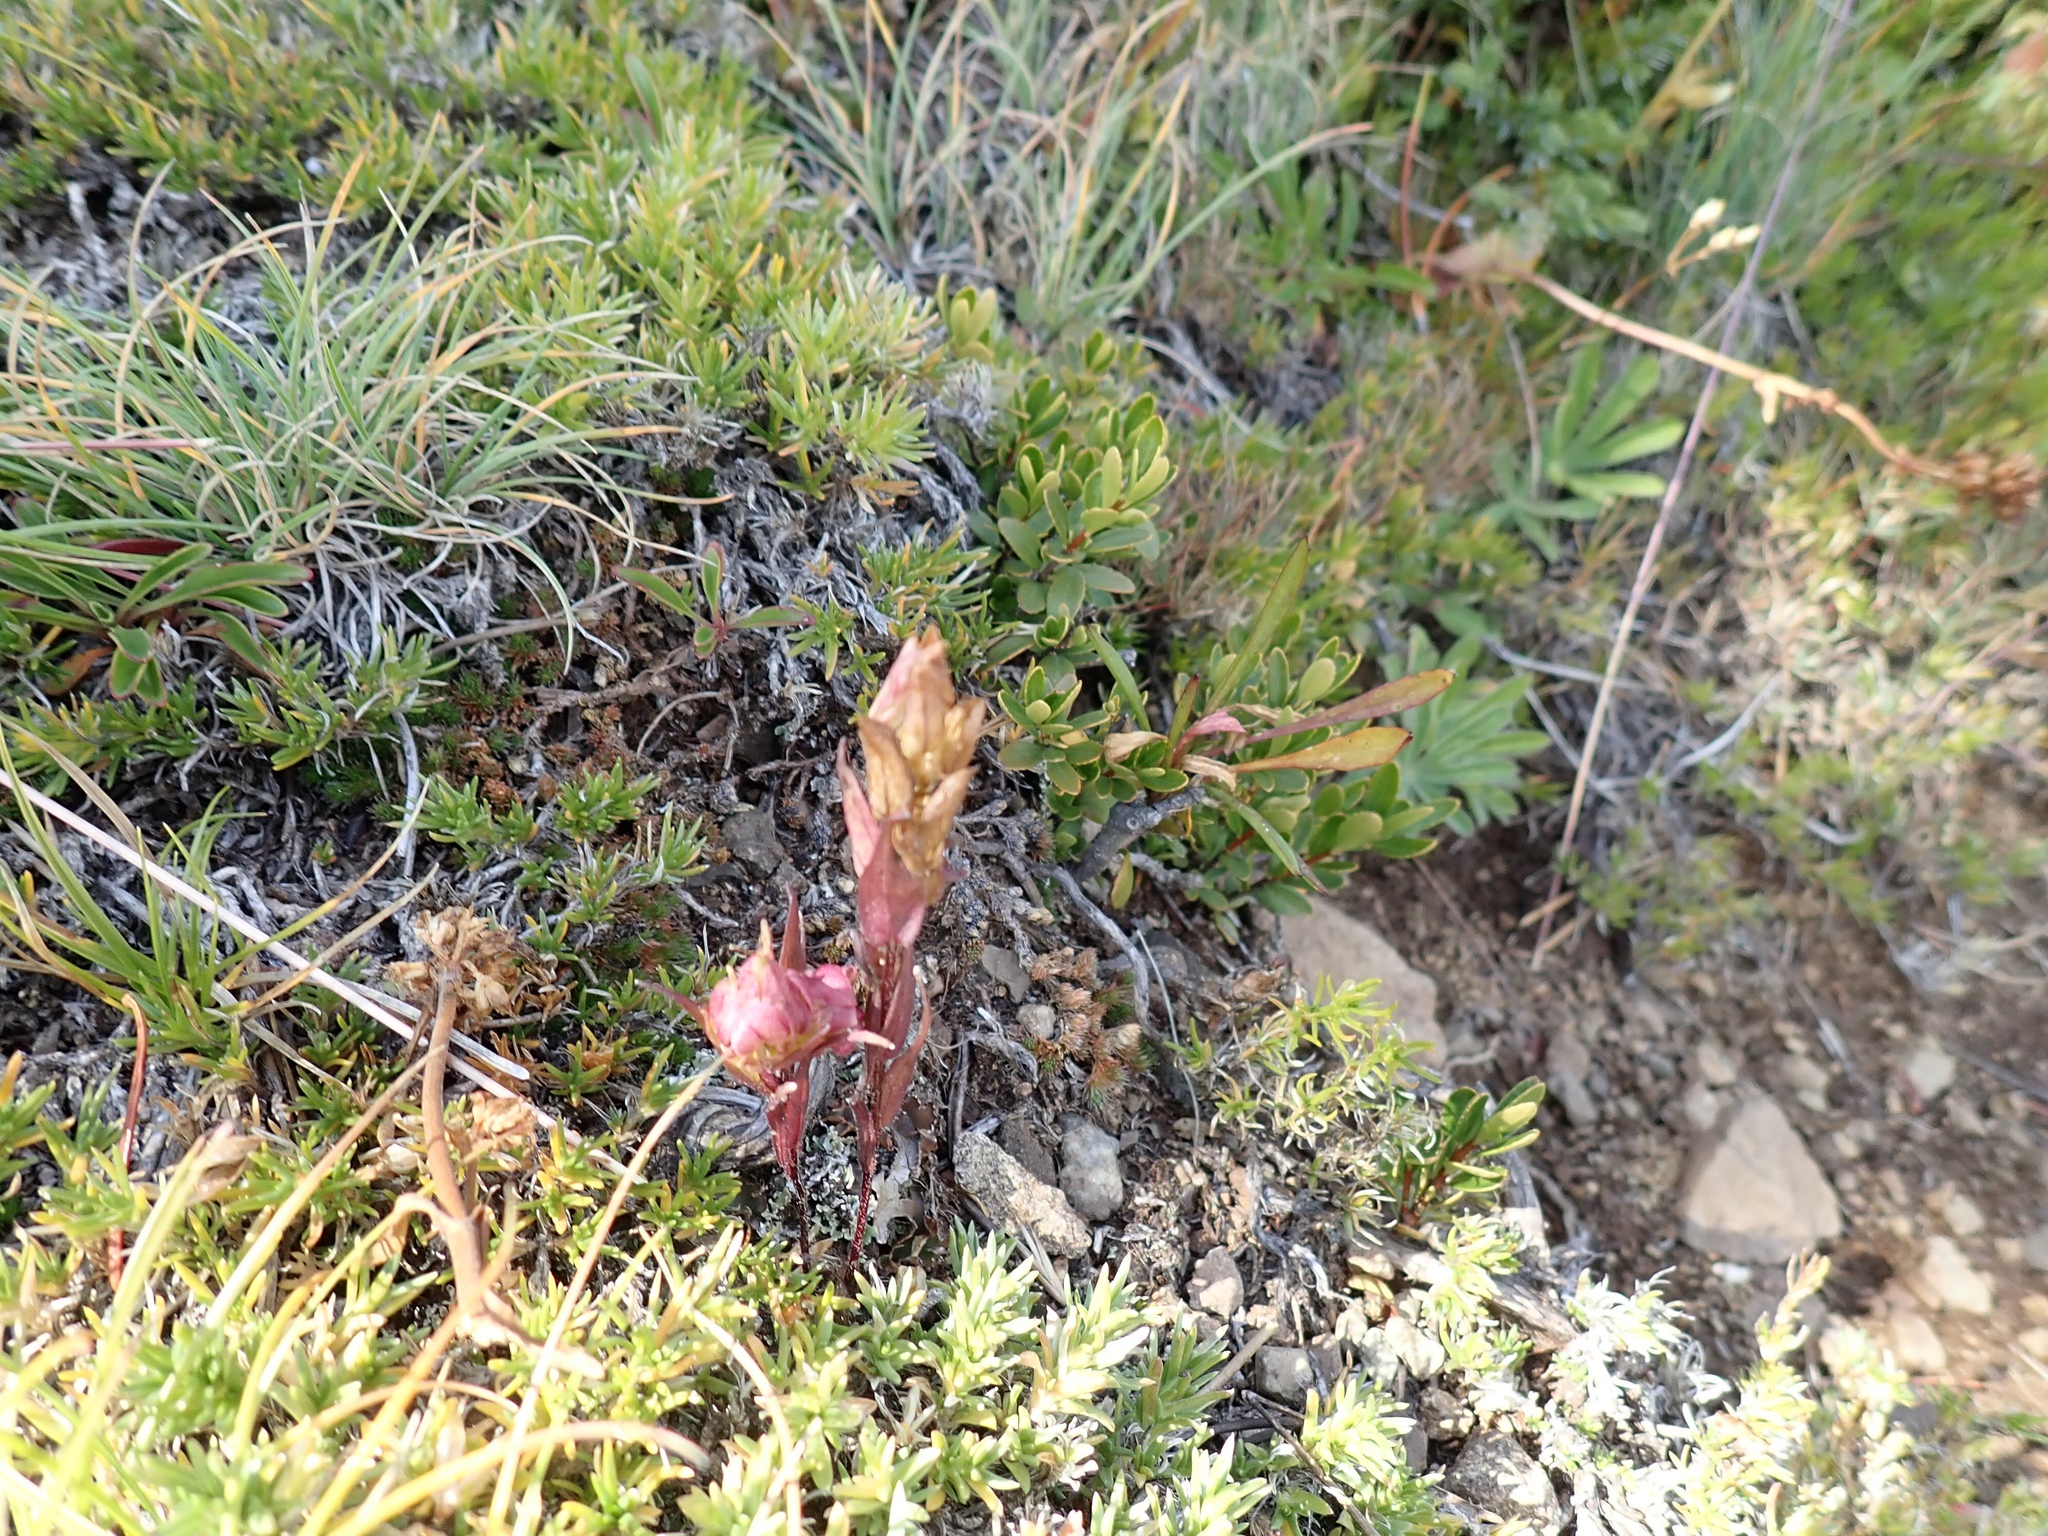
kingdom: Plantae
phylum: Tracheophyta
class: Magnoliopsida
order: Lamiales
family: Orobanchaceae
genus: Orthocarpus
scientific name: Orthocarpus imbricatus
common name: Mountain owl's-clover
